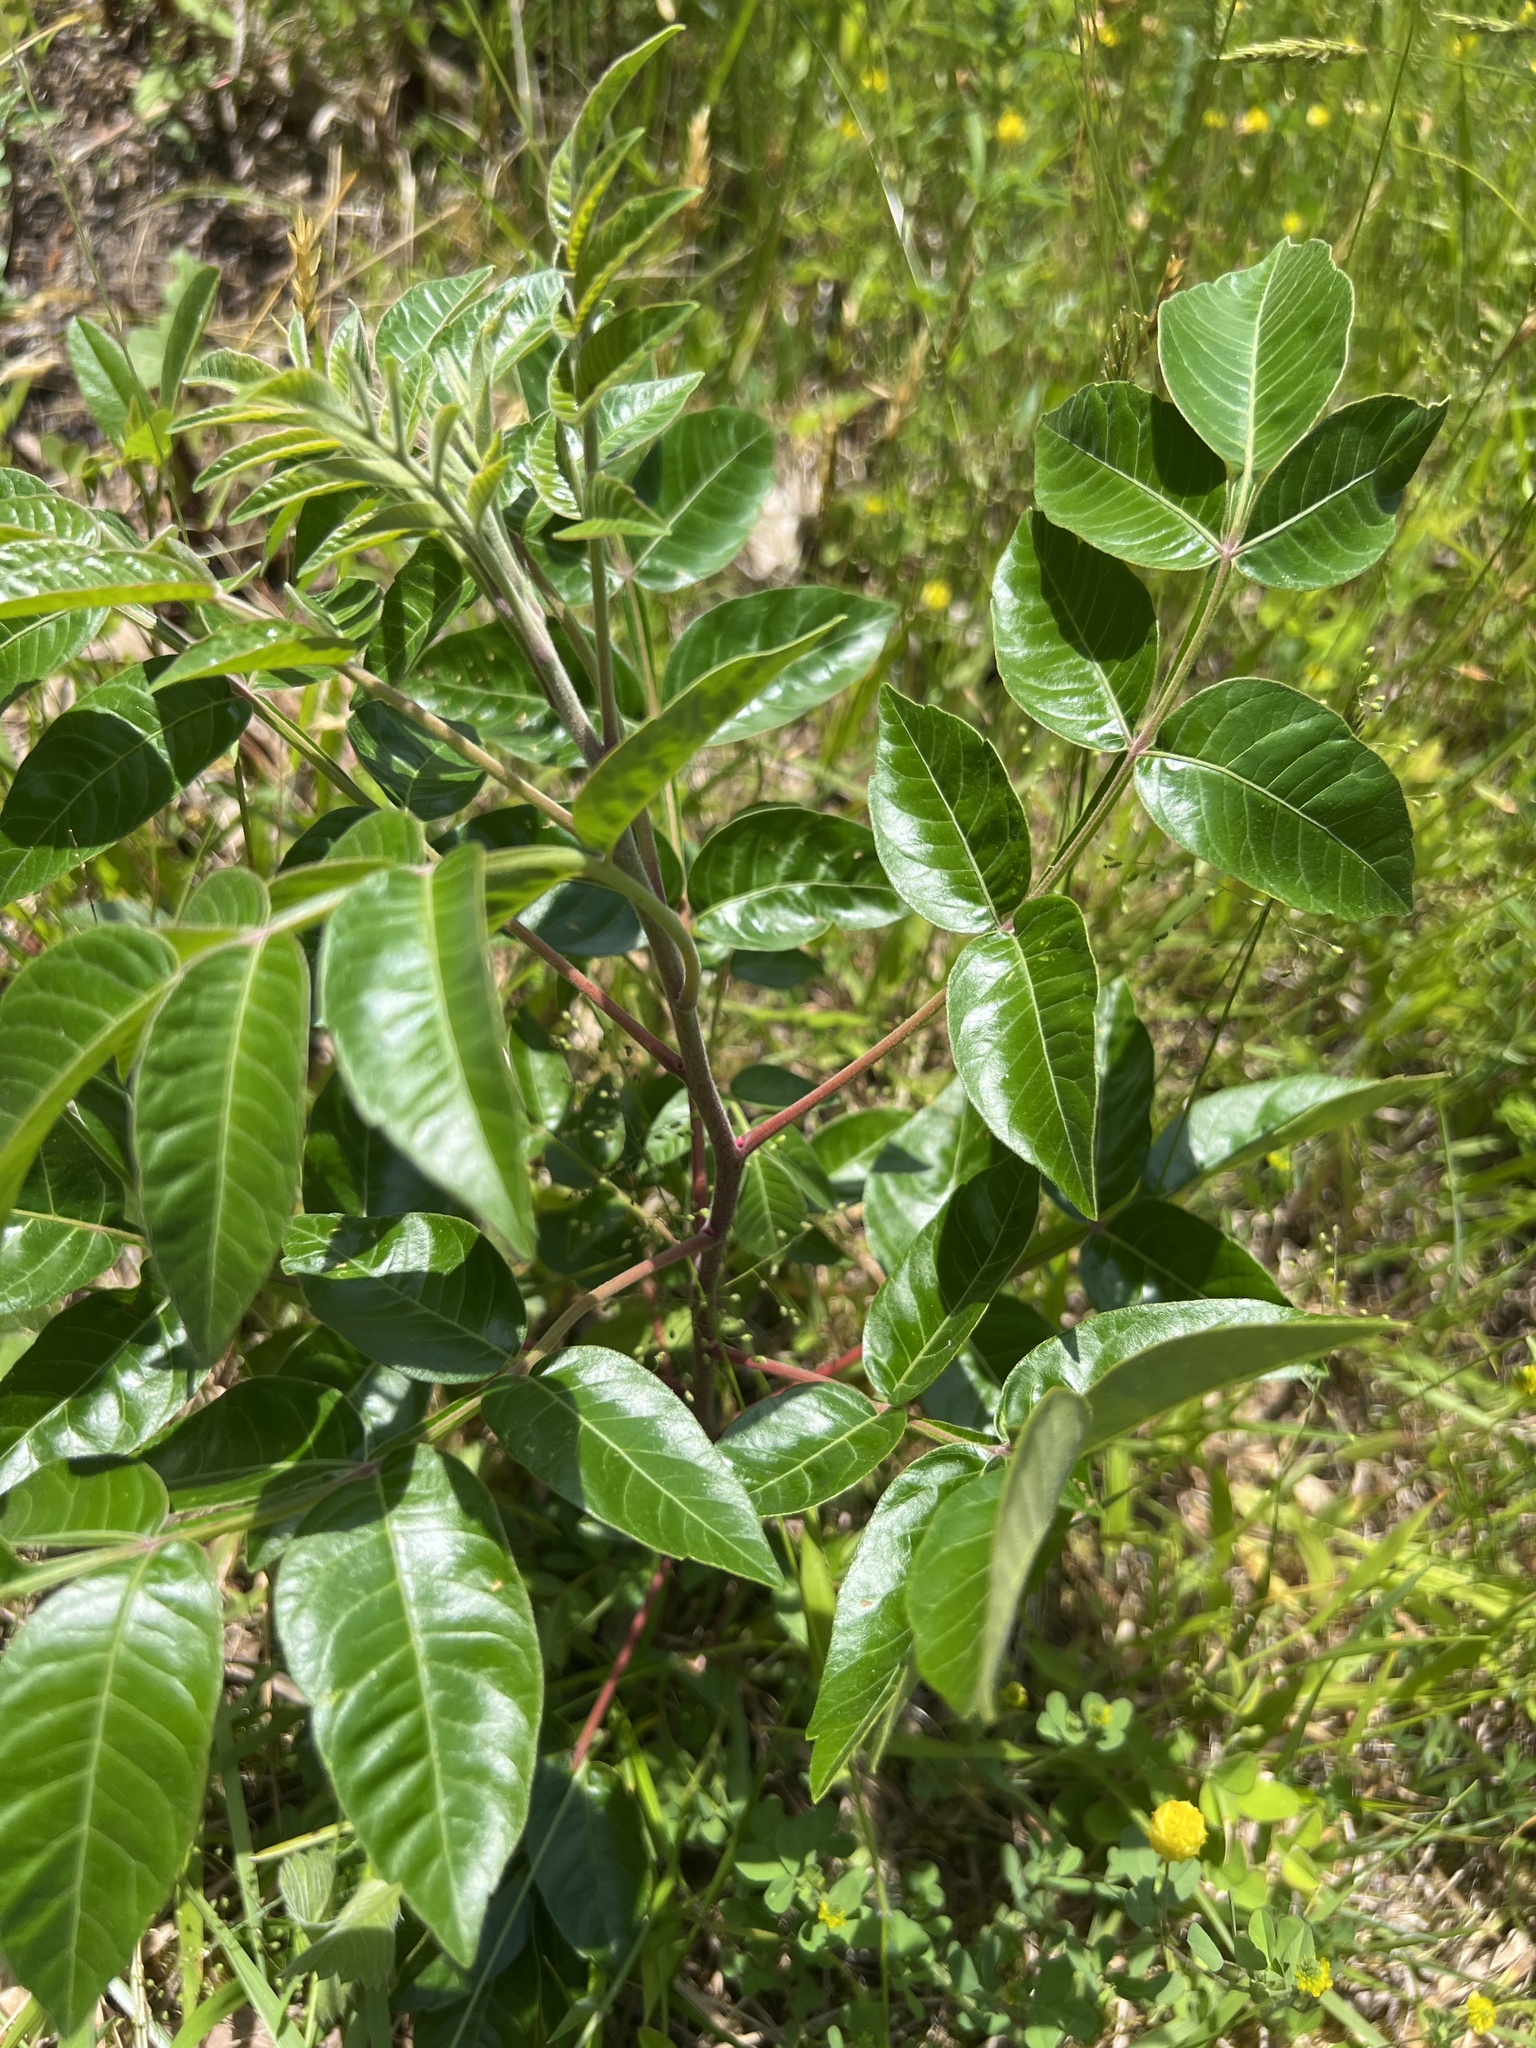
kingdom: Plantae
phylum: Tracheophyta
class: Magnoliopsida
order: Sapindales
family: Anacardiaceae
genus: Rhus
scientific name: Rhus copallina
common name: Shining sumac
